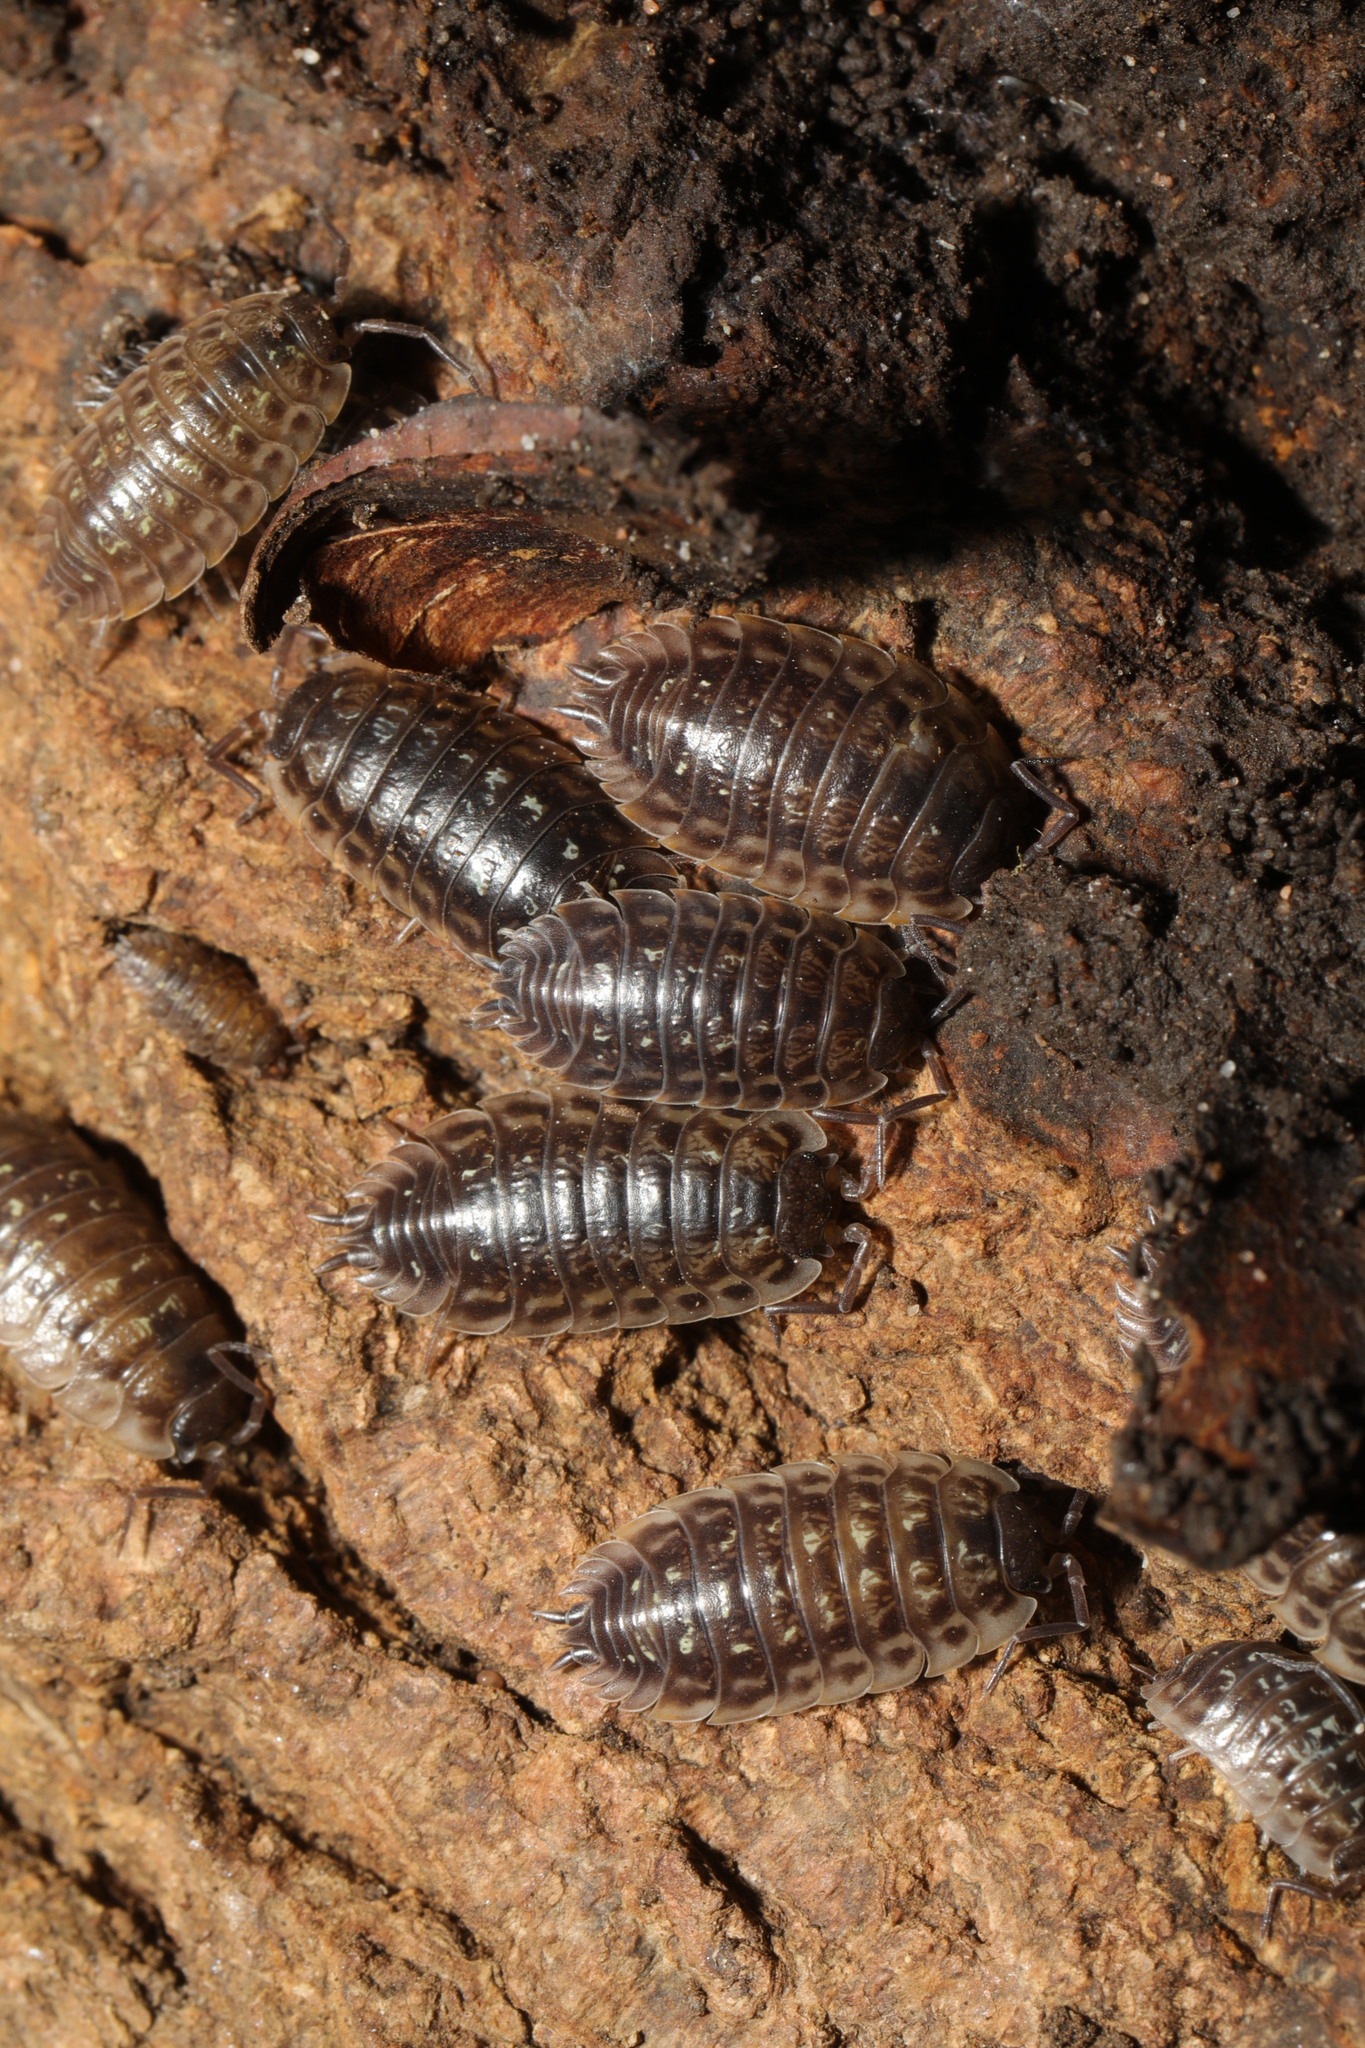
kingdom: Animalia
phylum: Arthropoda
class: Malacostraca
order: Isopoda
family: Oniscidae
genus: Oniscus
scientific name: Oniscus asellus
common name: Common shiny woodlouse
